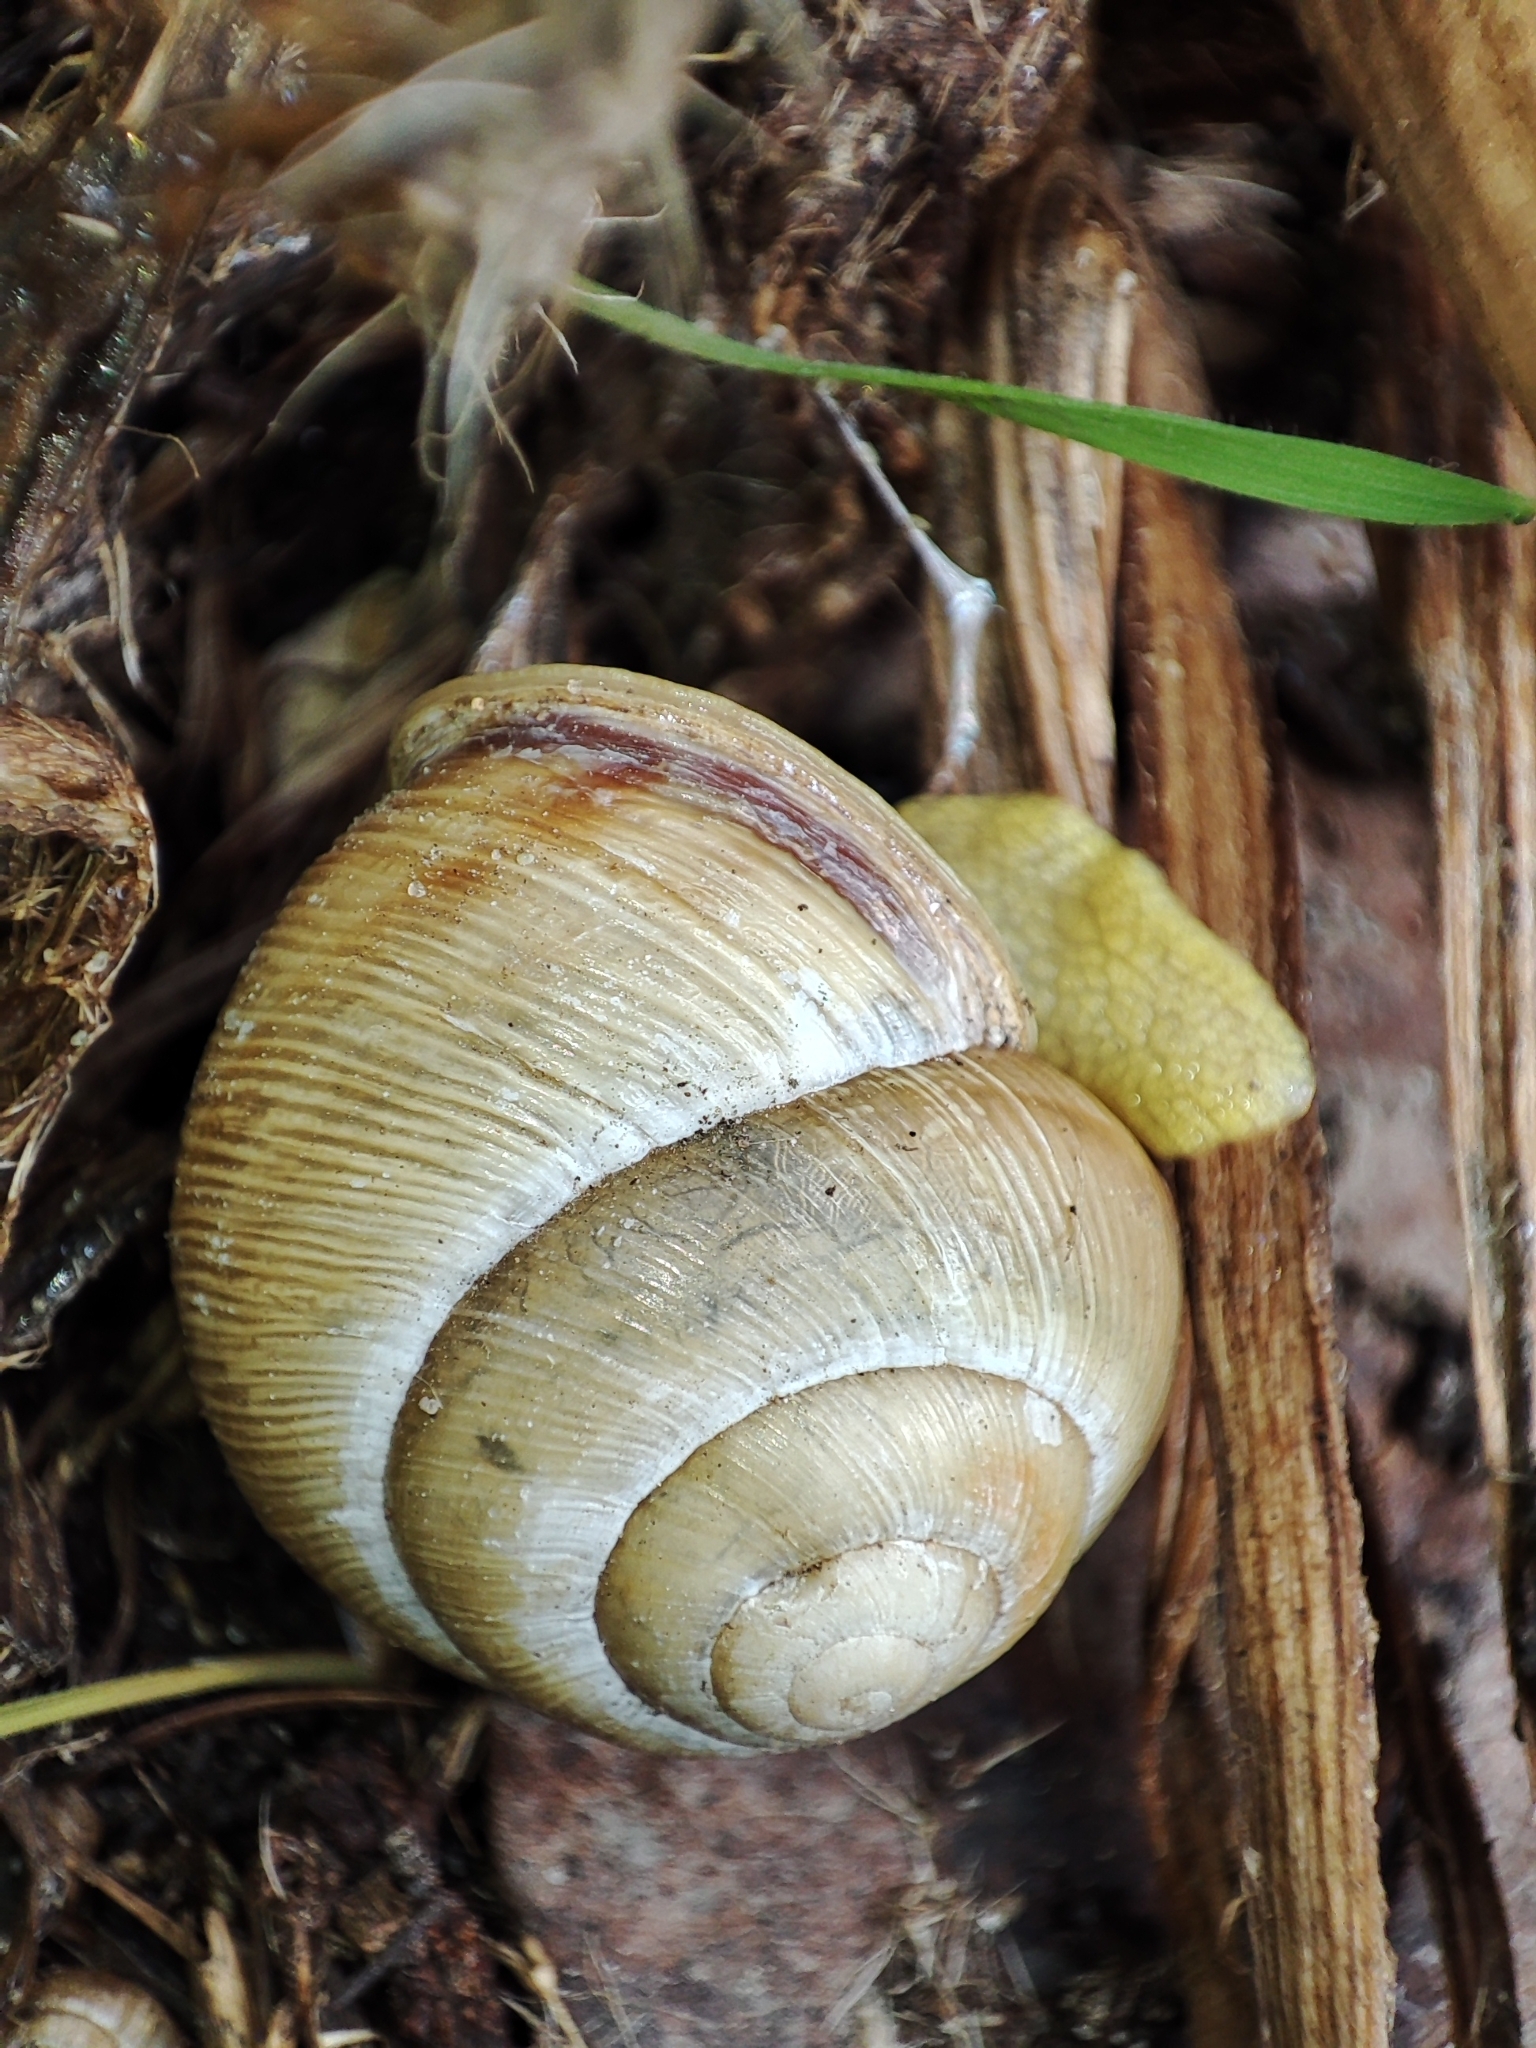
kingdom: Animalia
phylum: Mollusca
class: Gastropoda
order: Stylommatophora
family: Helicidae
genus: Caucasotachea
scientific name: Caucasotachea vindobonensis
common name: European helicid land snail
